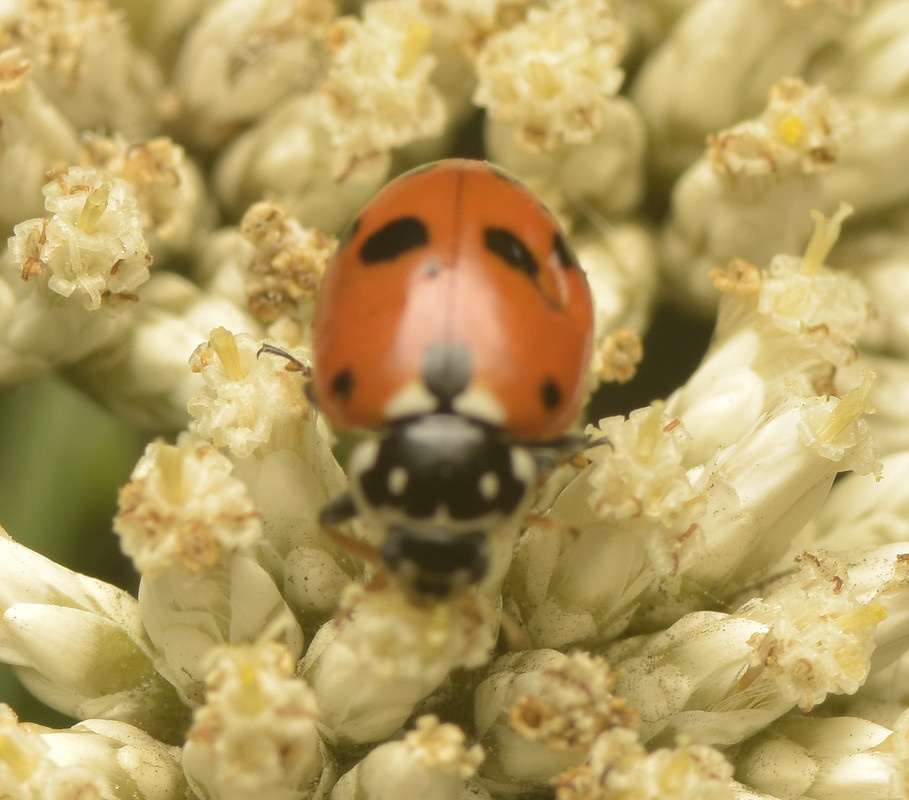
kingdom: Animalia
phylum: Arthropoda
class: Insecta
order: Coleoptera
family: Coccinellidae
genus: Hippodamia
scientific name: Hippodamia variegata
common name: Ladybird beetle
